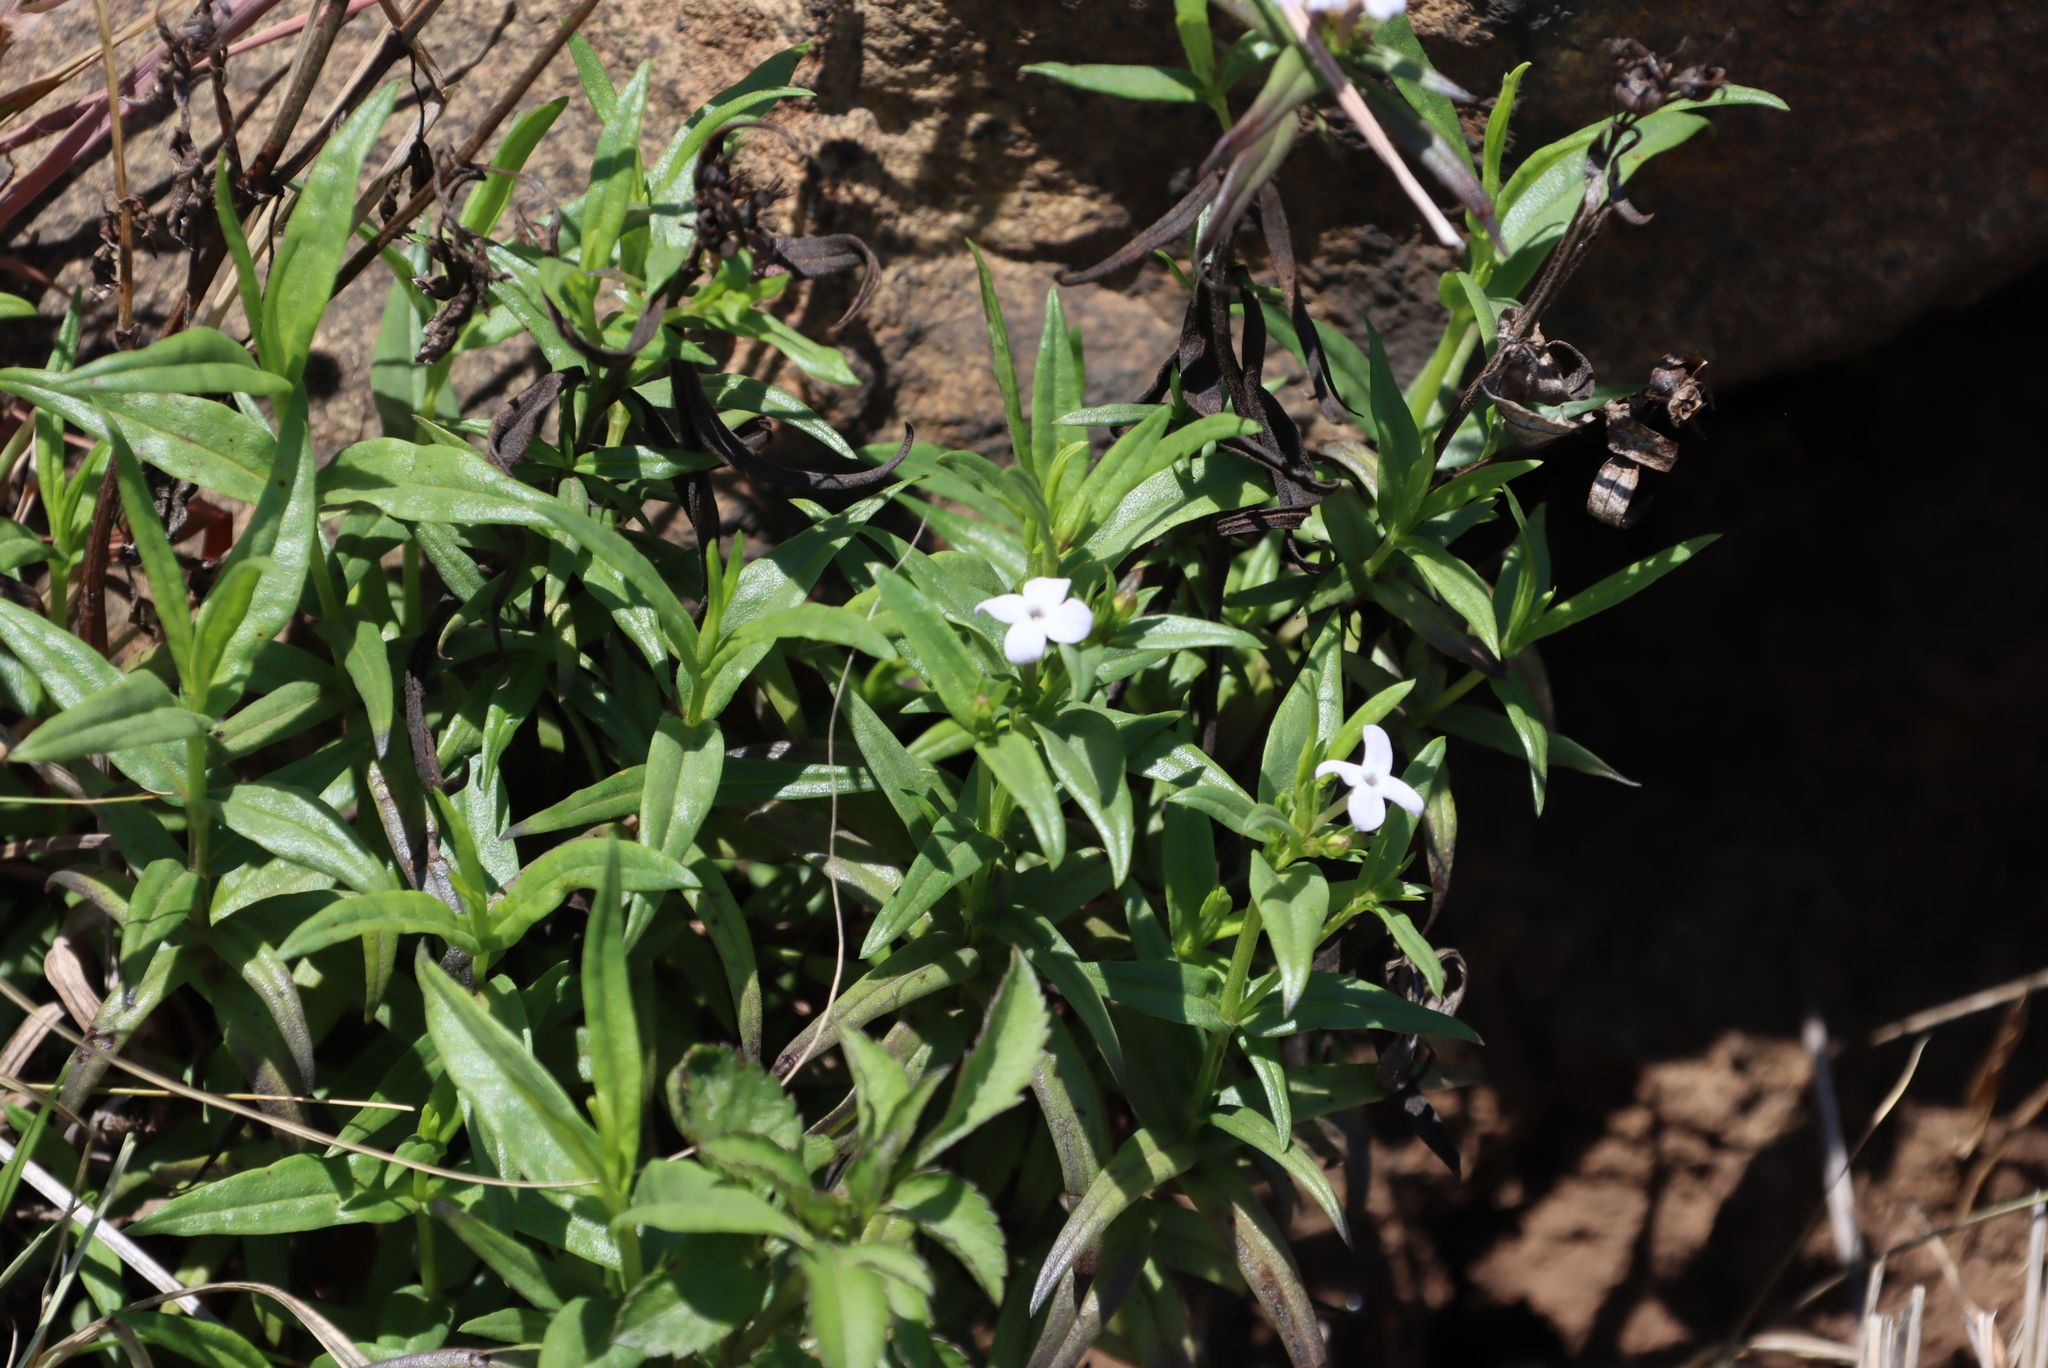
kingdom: Plantae
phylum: Tracheophyta
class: Magnoliopsida
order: Gentianales
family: Rubiaceae
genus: Conostomium
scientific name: Conostomium natalense
